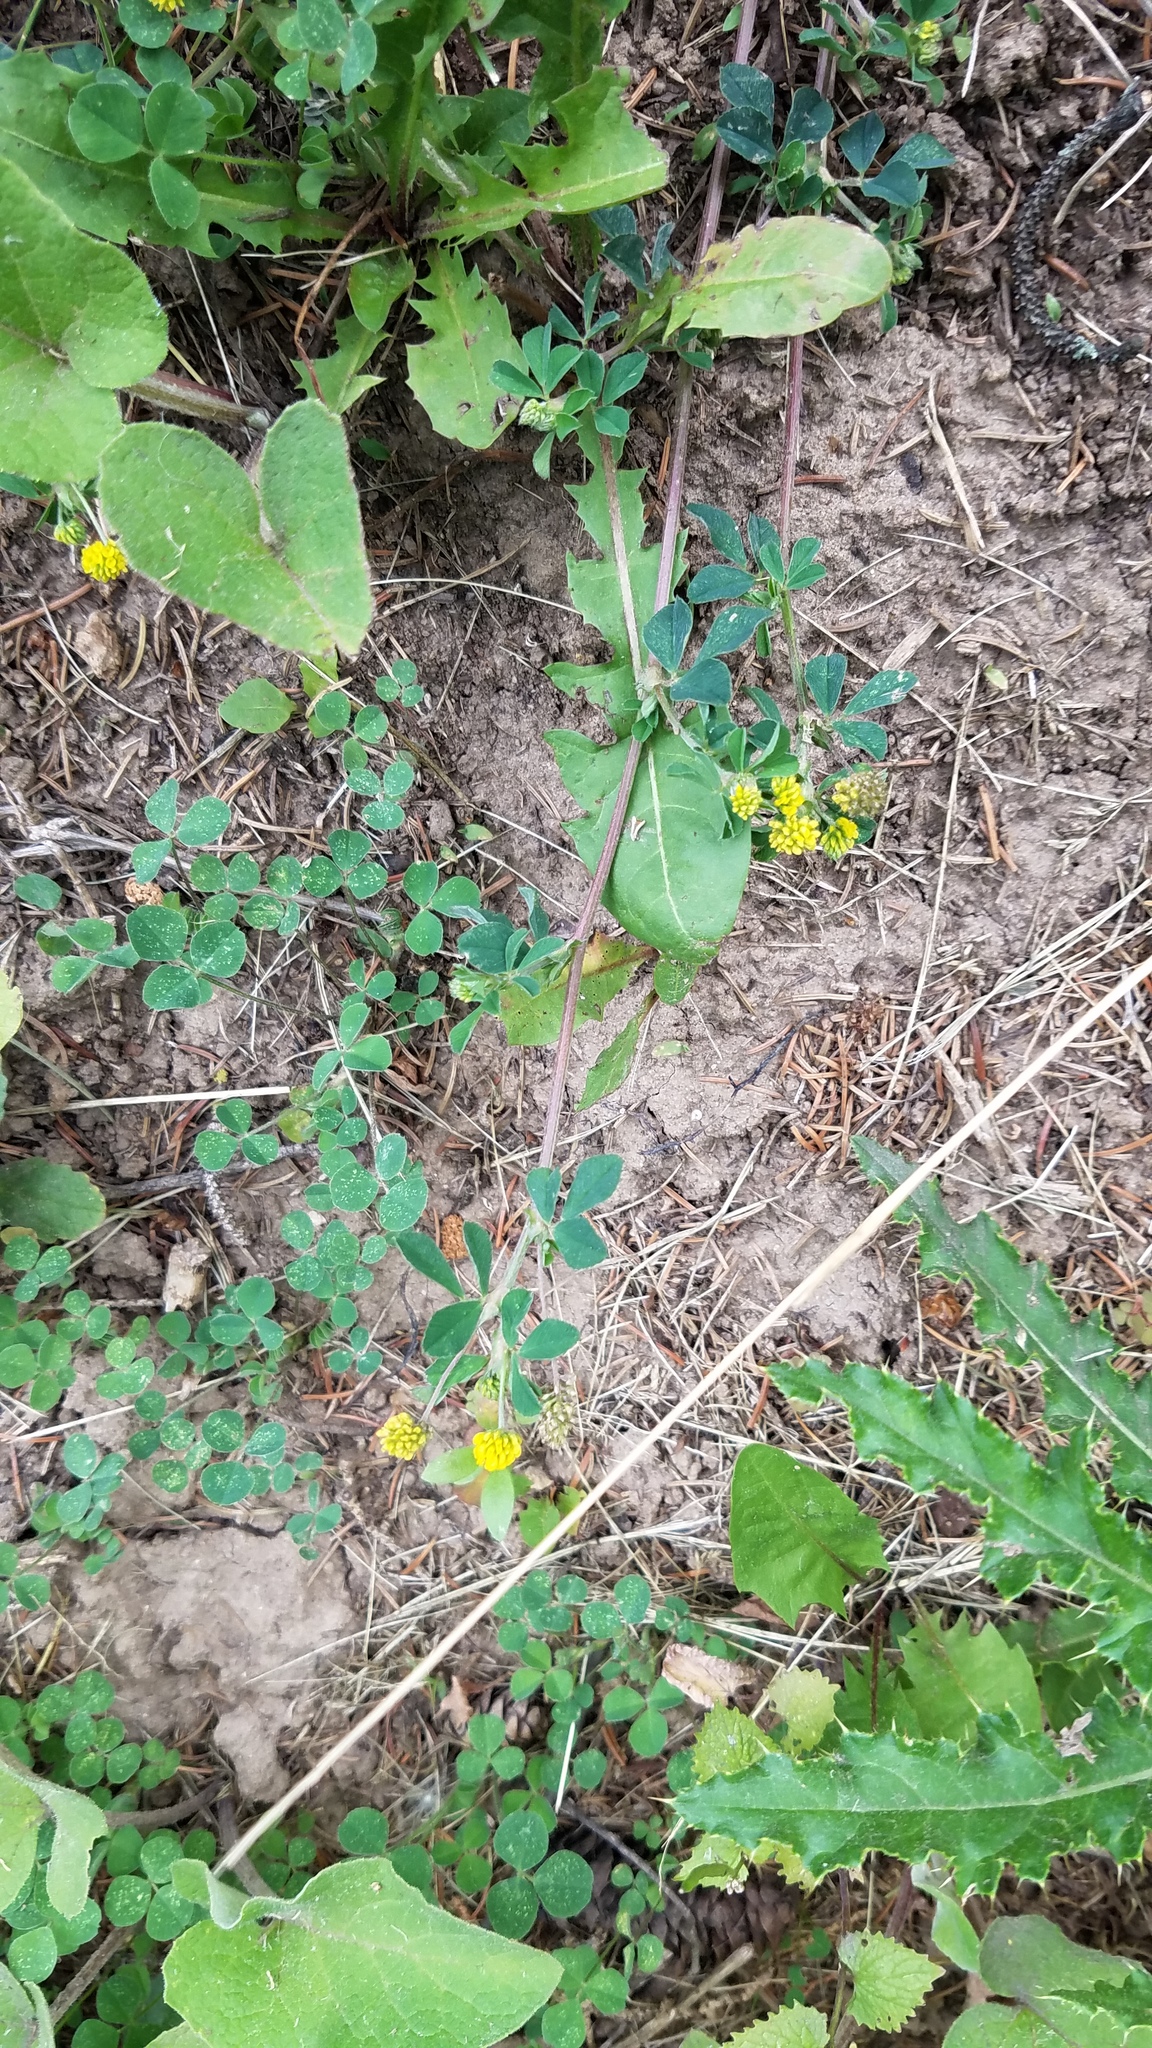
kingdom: Plantae
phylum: Tracheophyta
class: Magnoliopsida
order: Fabales
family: Fabaceae
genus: Medicago
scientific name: Medicago lupulina
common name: Black medick
